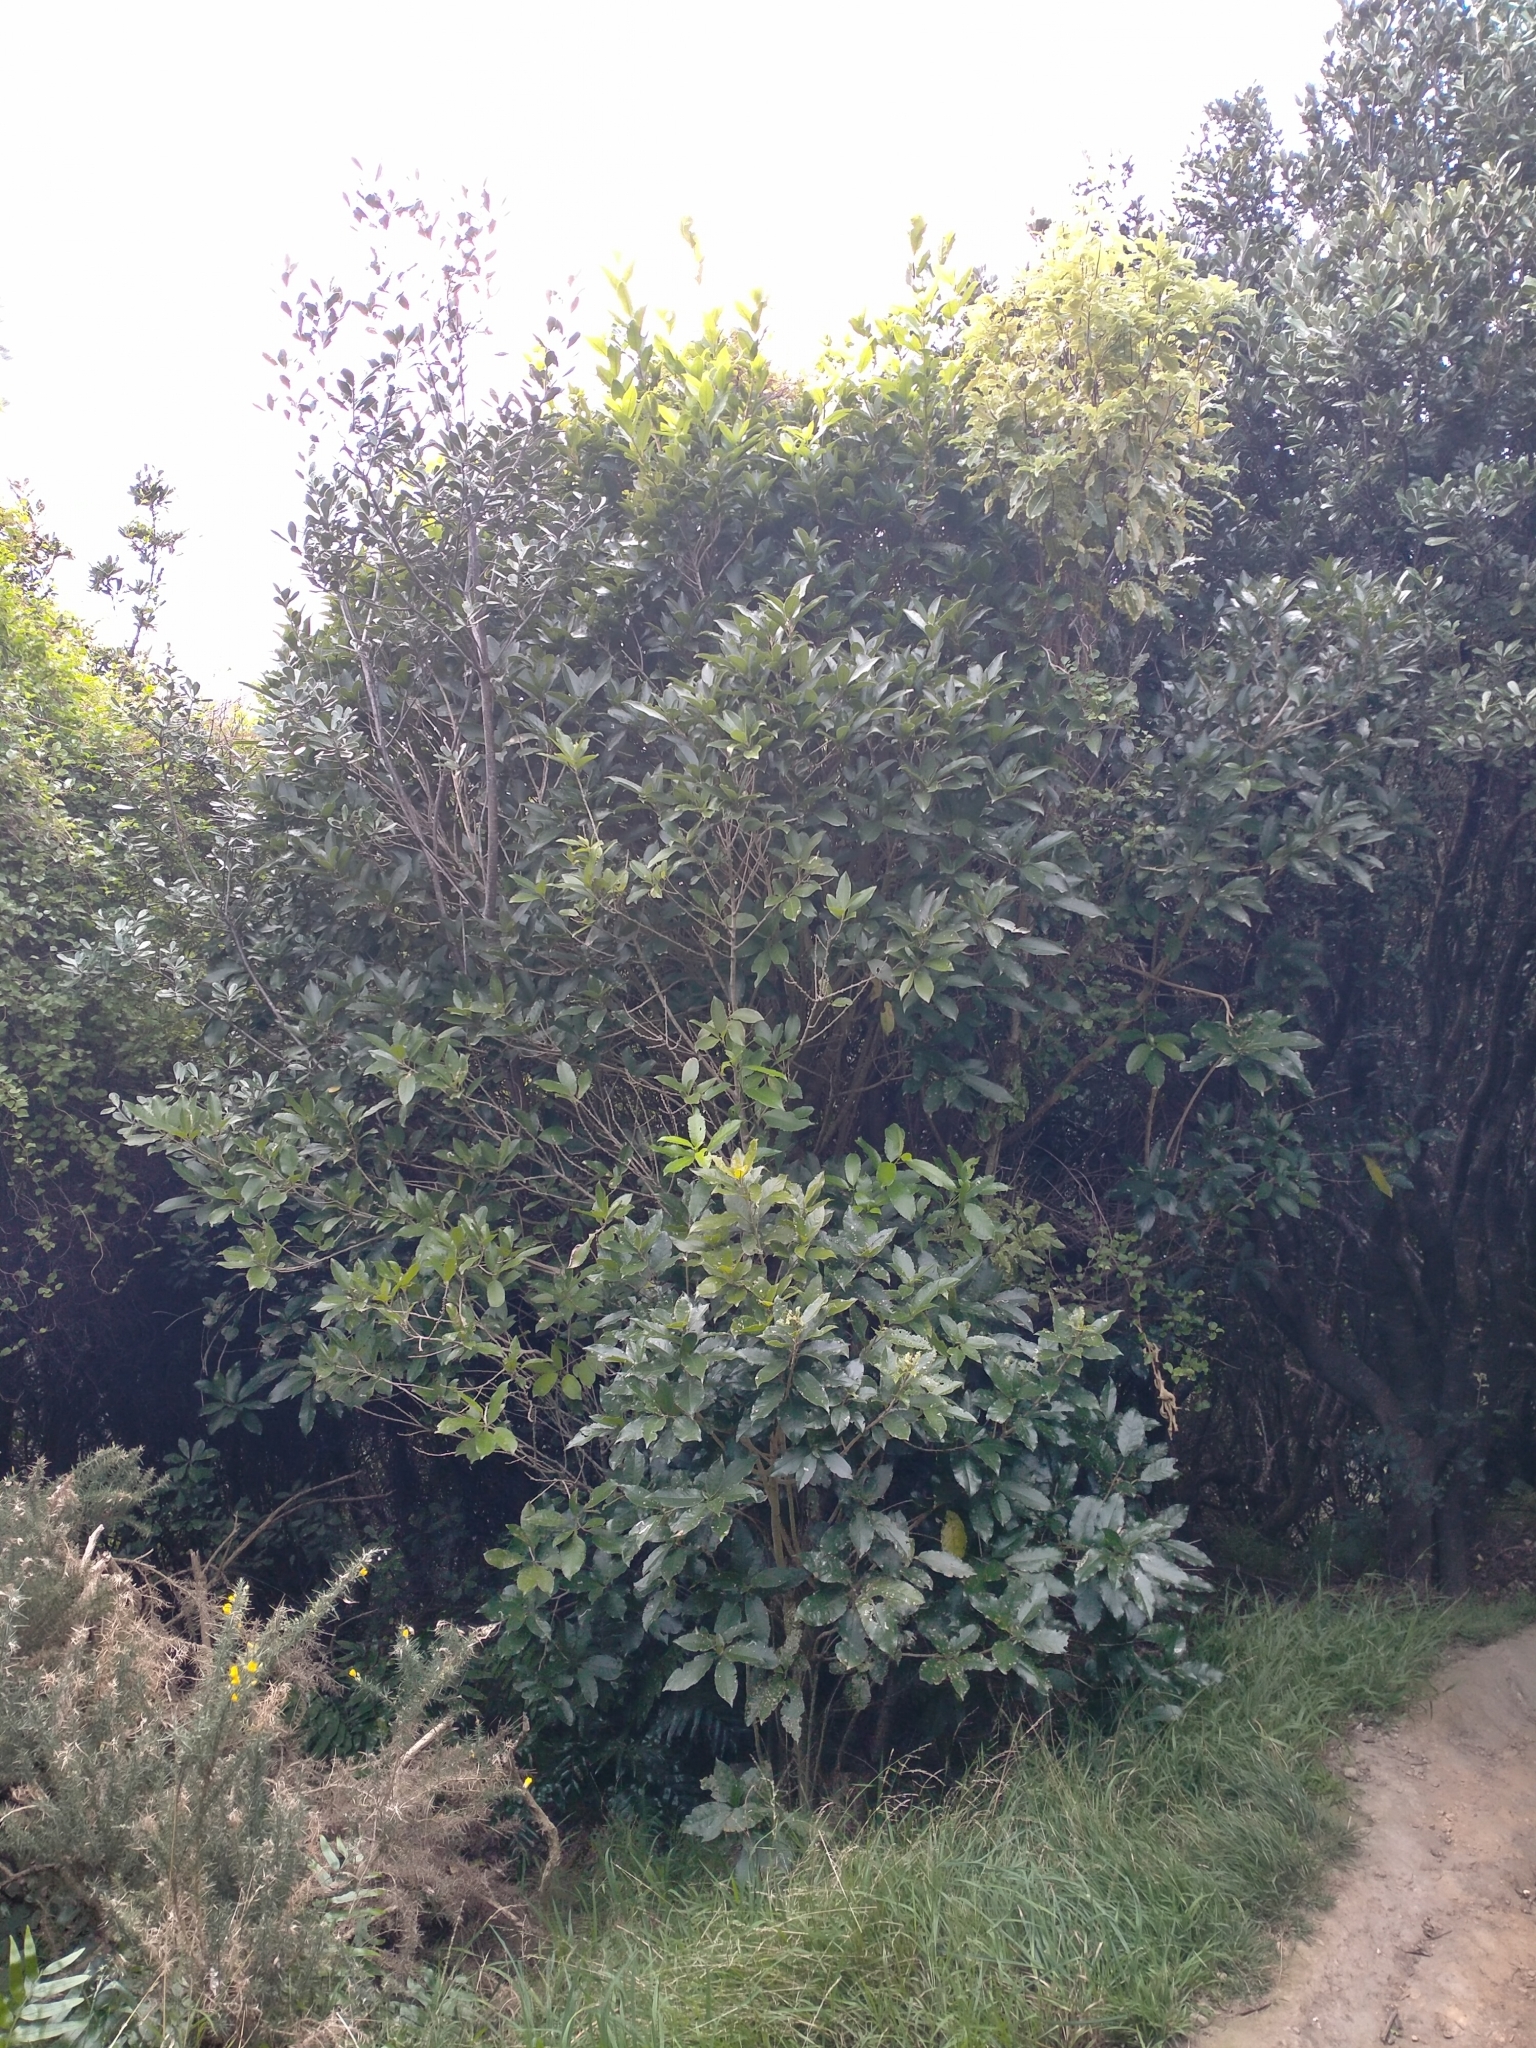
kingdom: Plantae
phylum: Tracheophyta
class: Magnoliopsida
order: Malpighiales
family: Violaceae
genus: Melicytus
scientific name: Melicytus ramiflorus
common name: Mahoe
